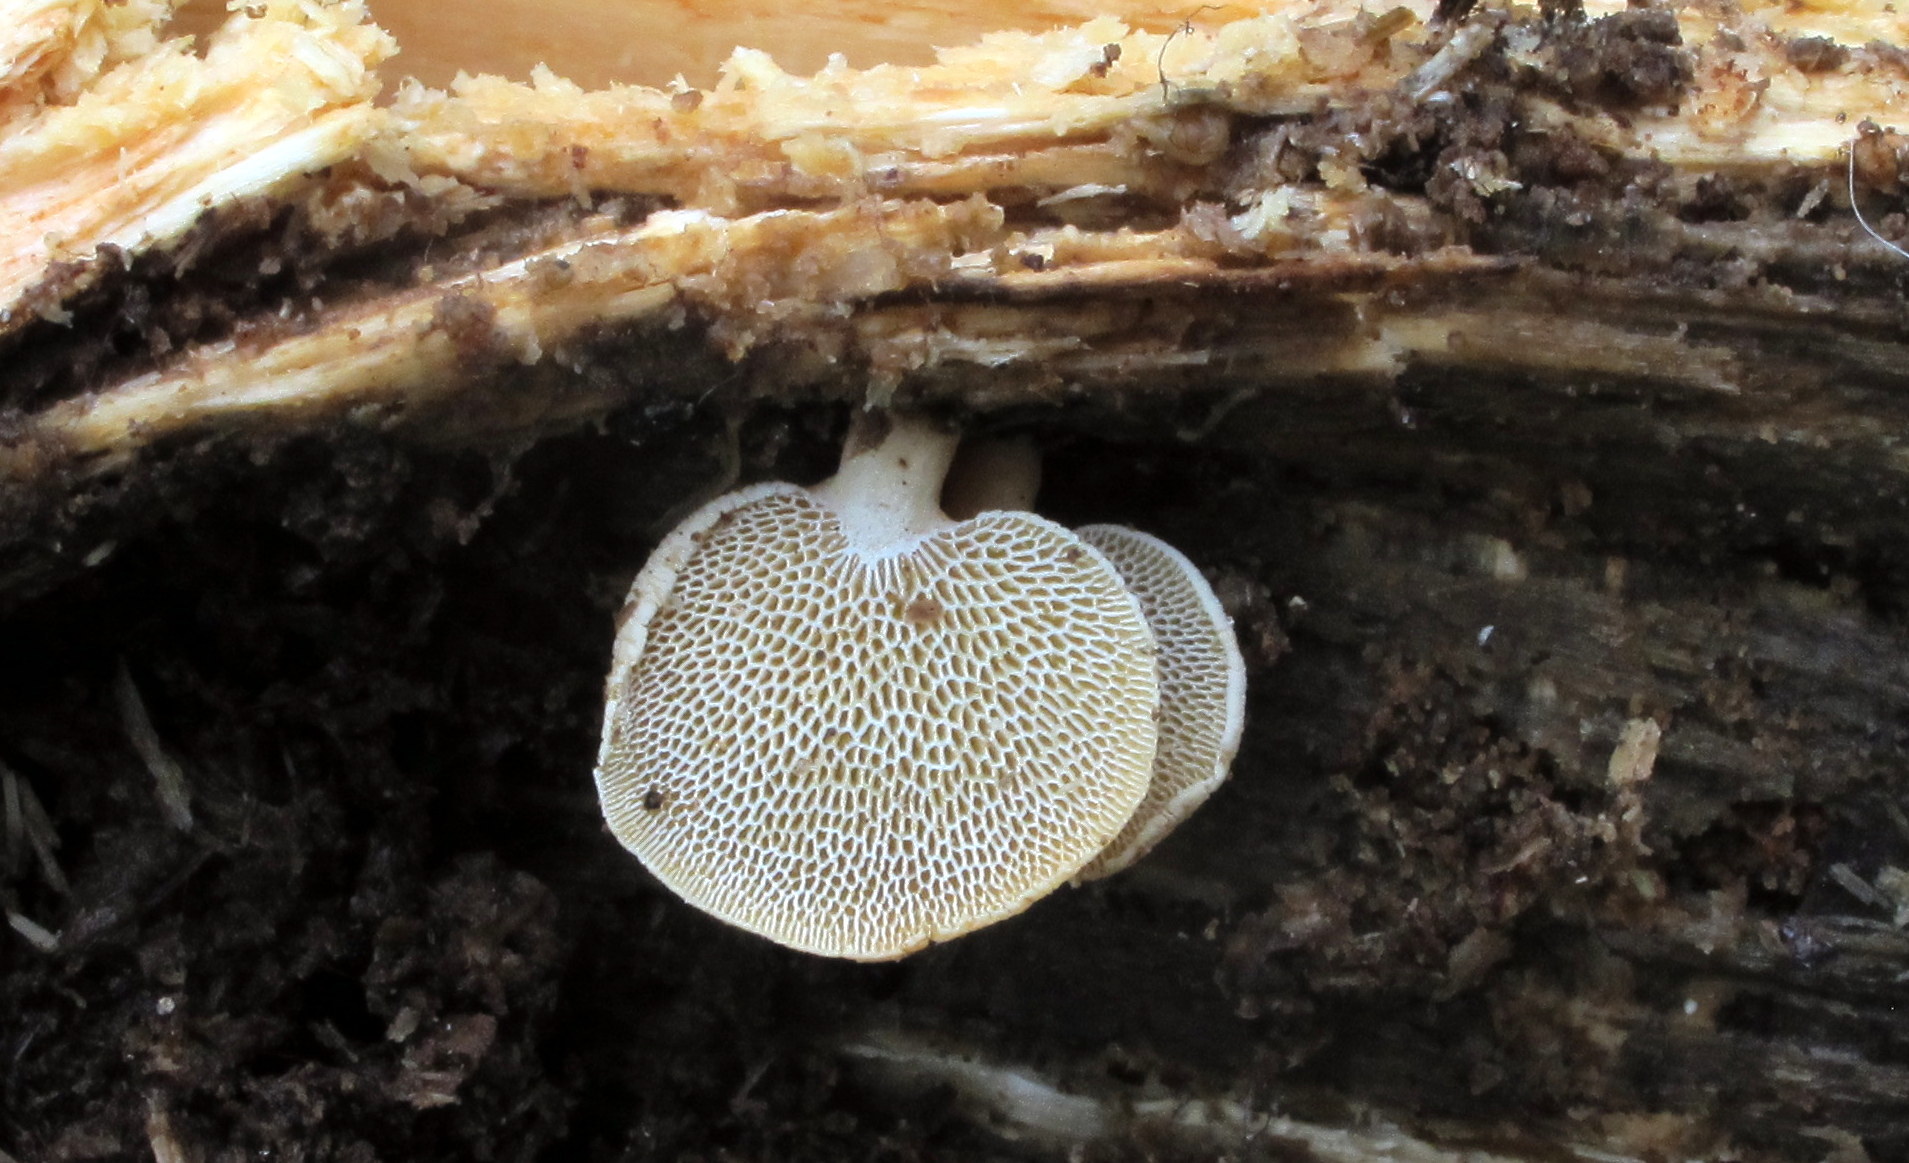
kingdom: Fungi
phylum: Basidiomycota
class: Agaricomycetes
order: Agaricales
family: Mycenaceae
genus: Panellus
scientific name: Panellus pusillus
